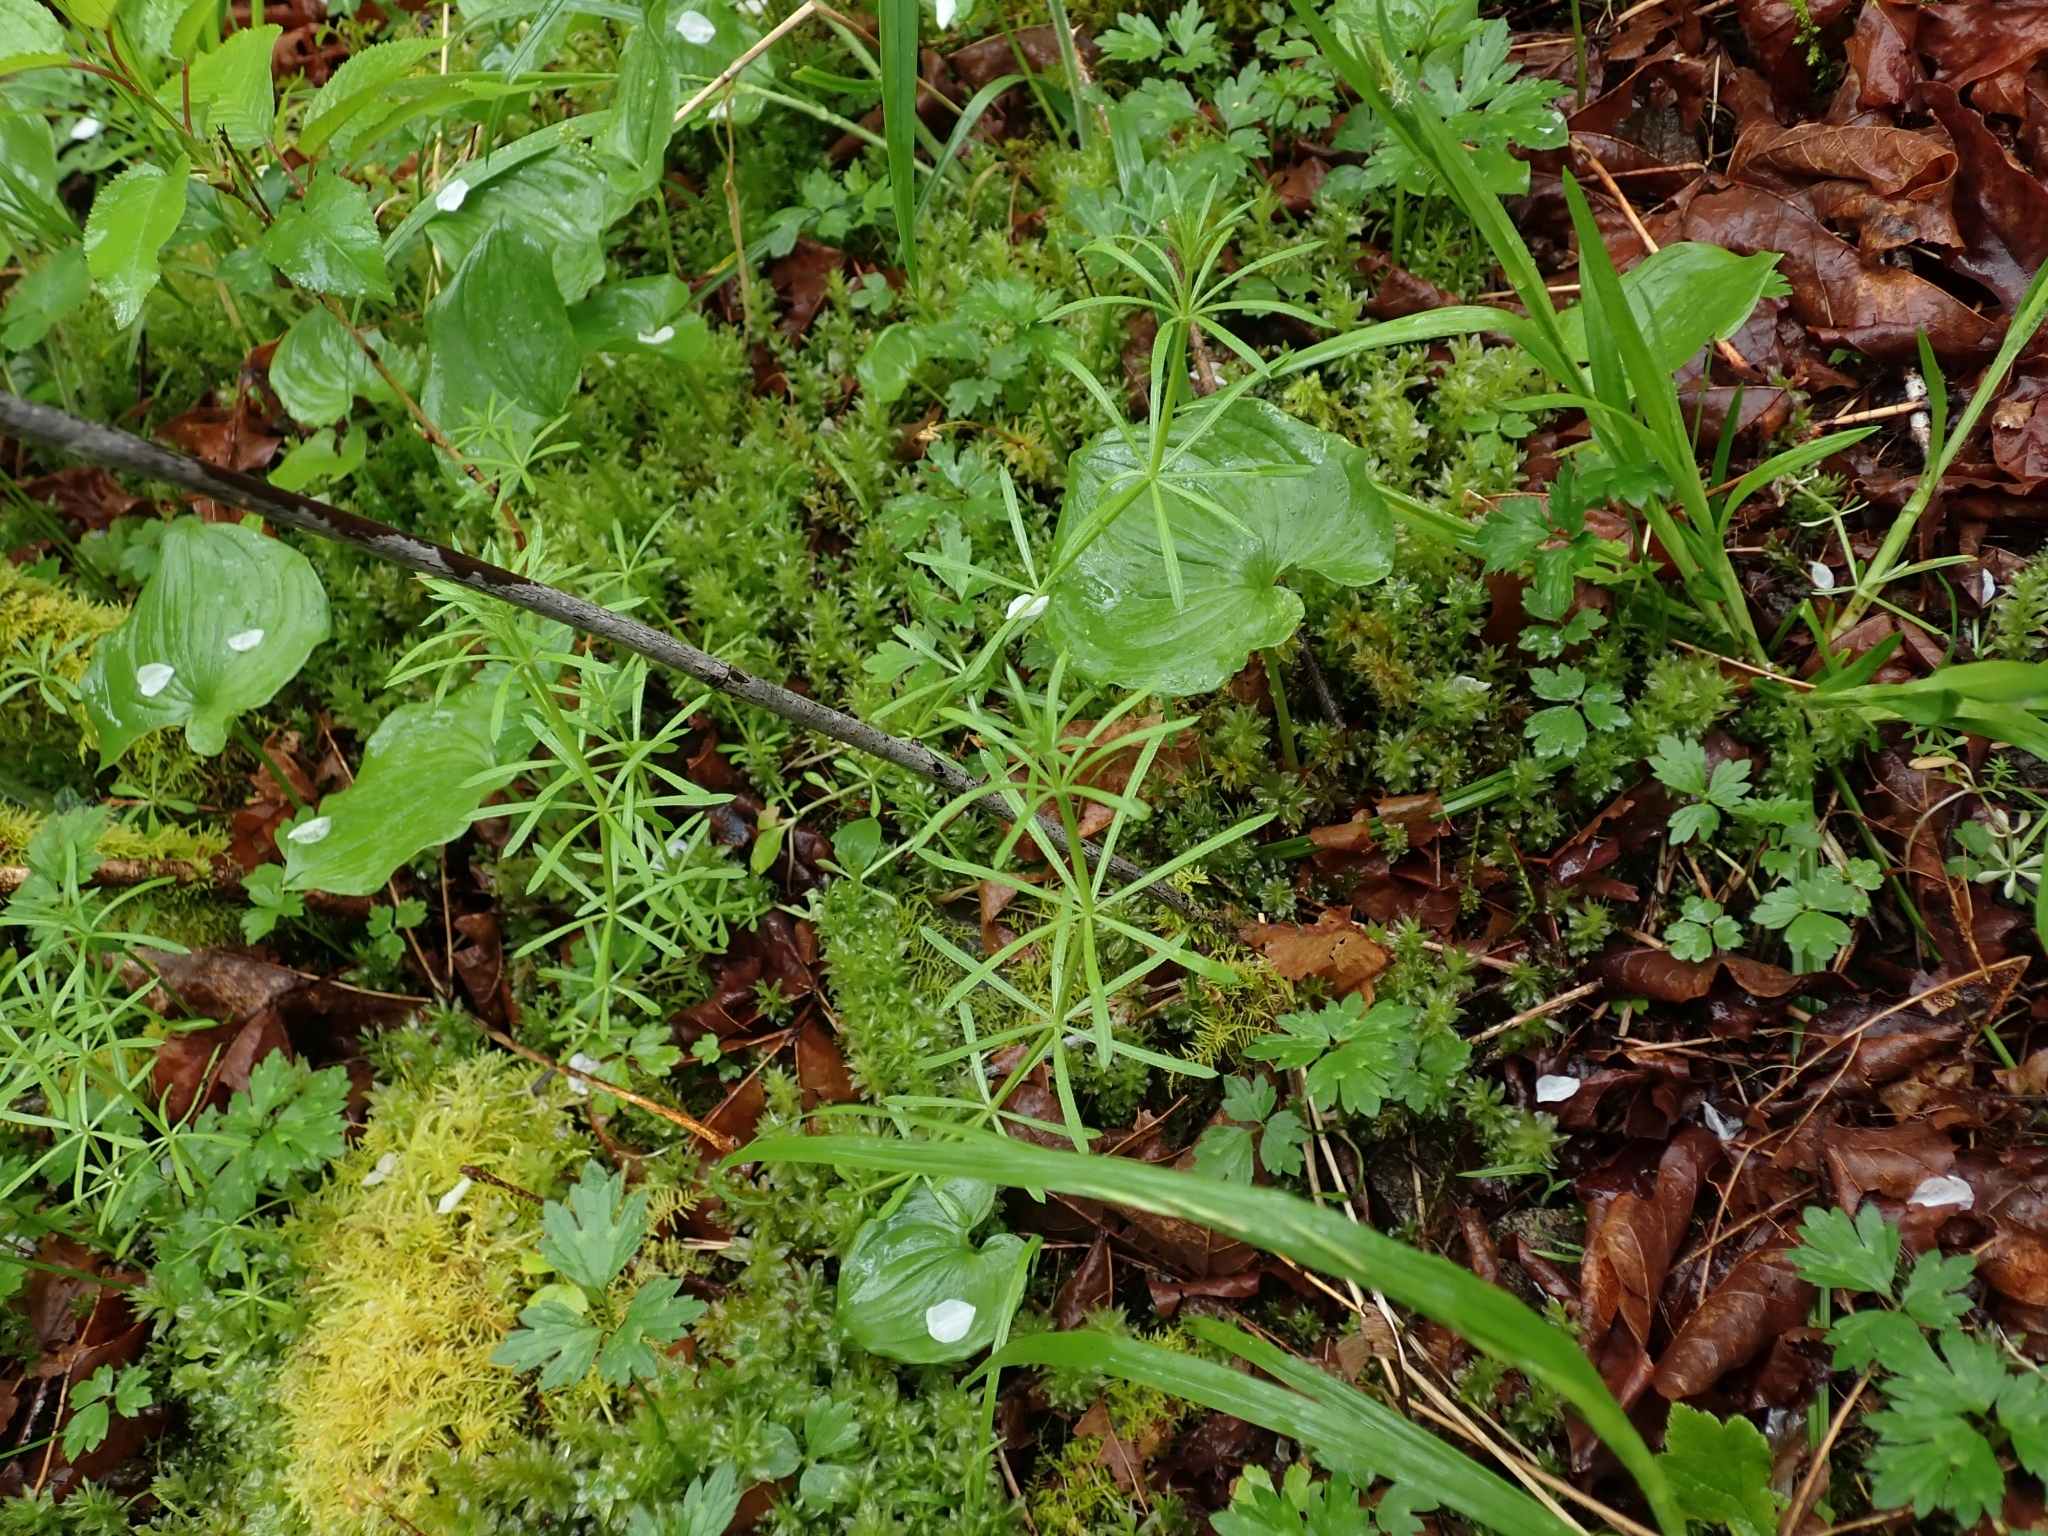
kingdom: Plantae
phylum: Tracheophyta
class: Magnoliopsida
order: Gentianales
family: Rubiaceae
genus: Galium
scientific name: Galium aparine
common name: Cleavers
